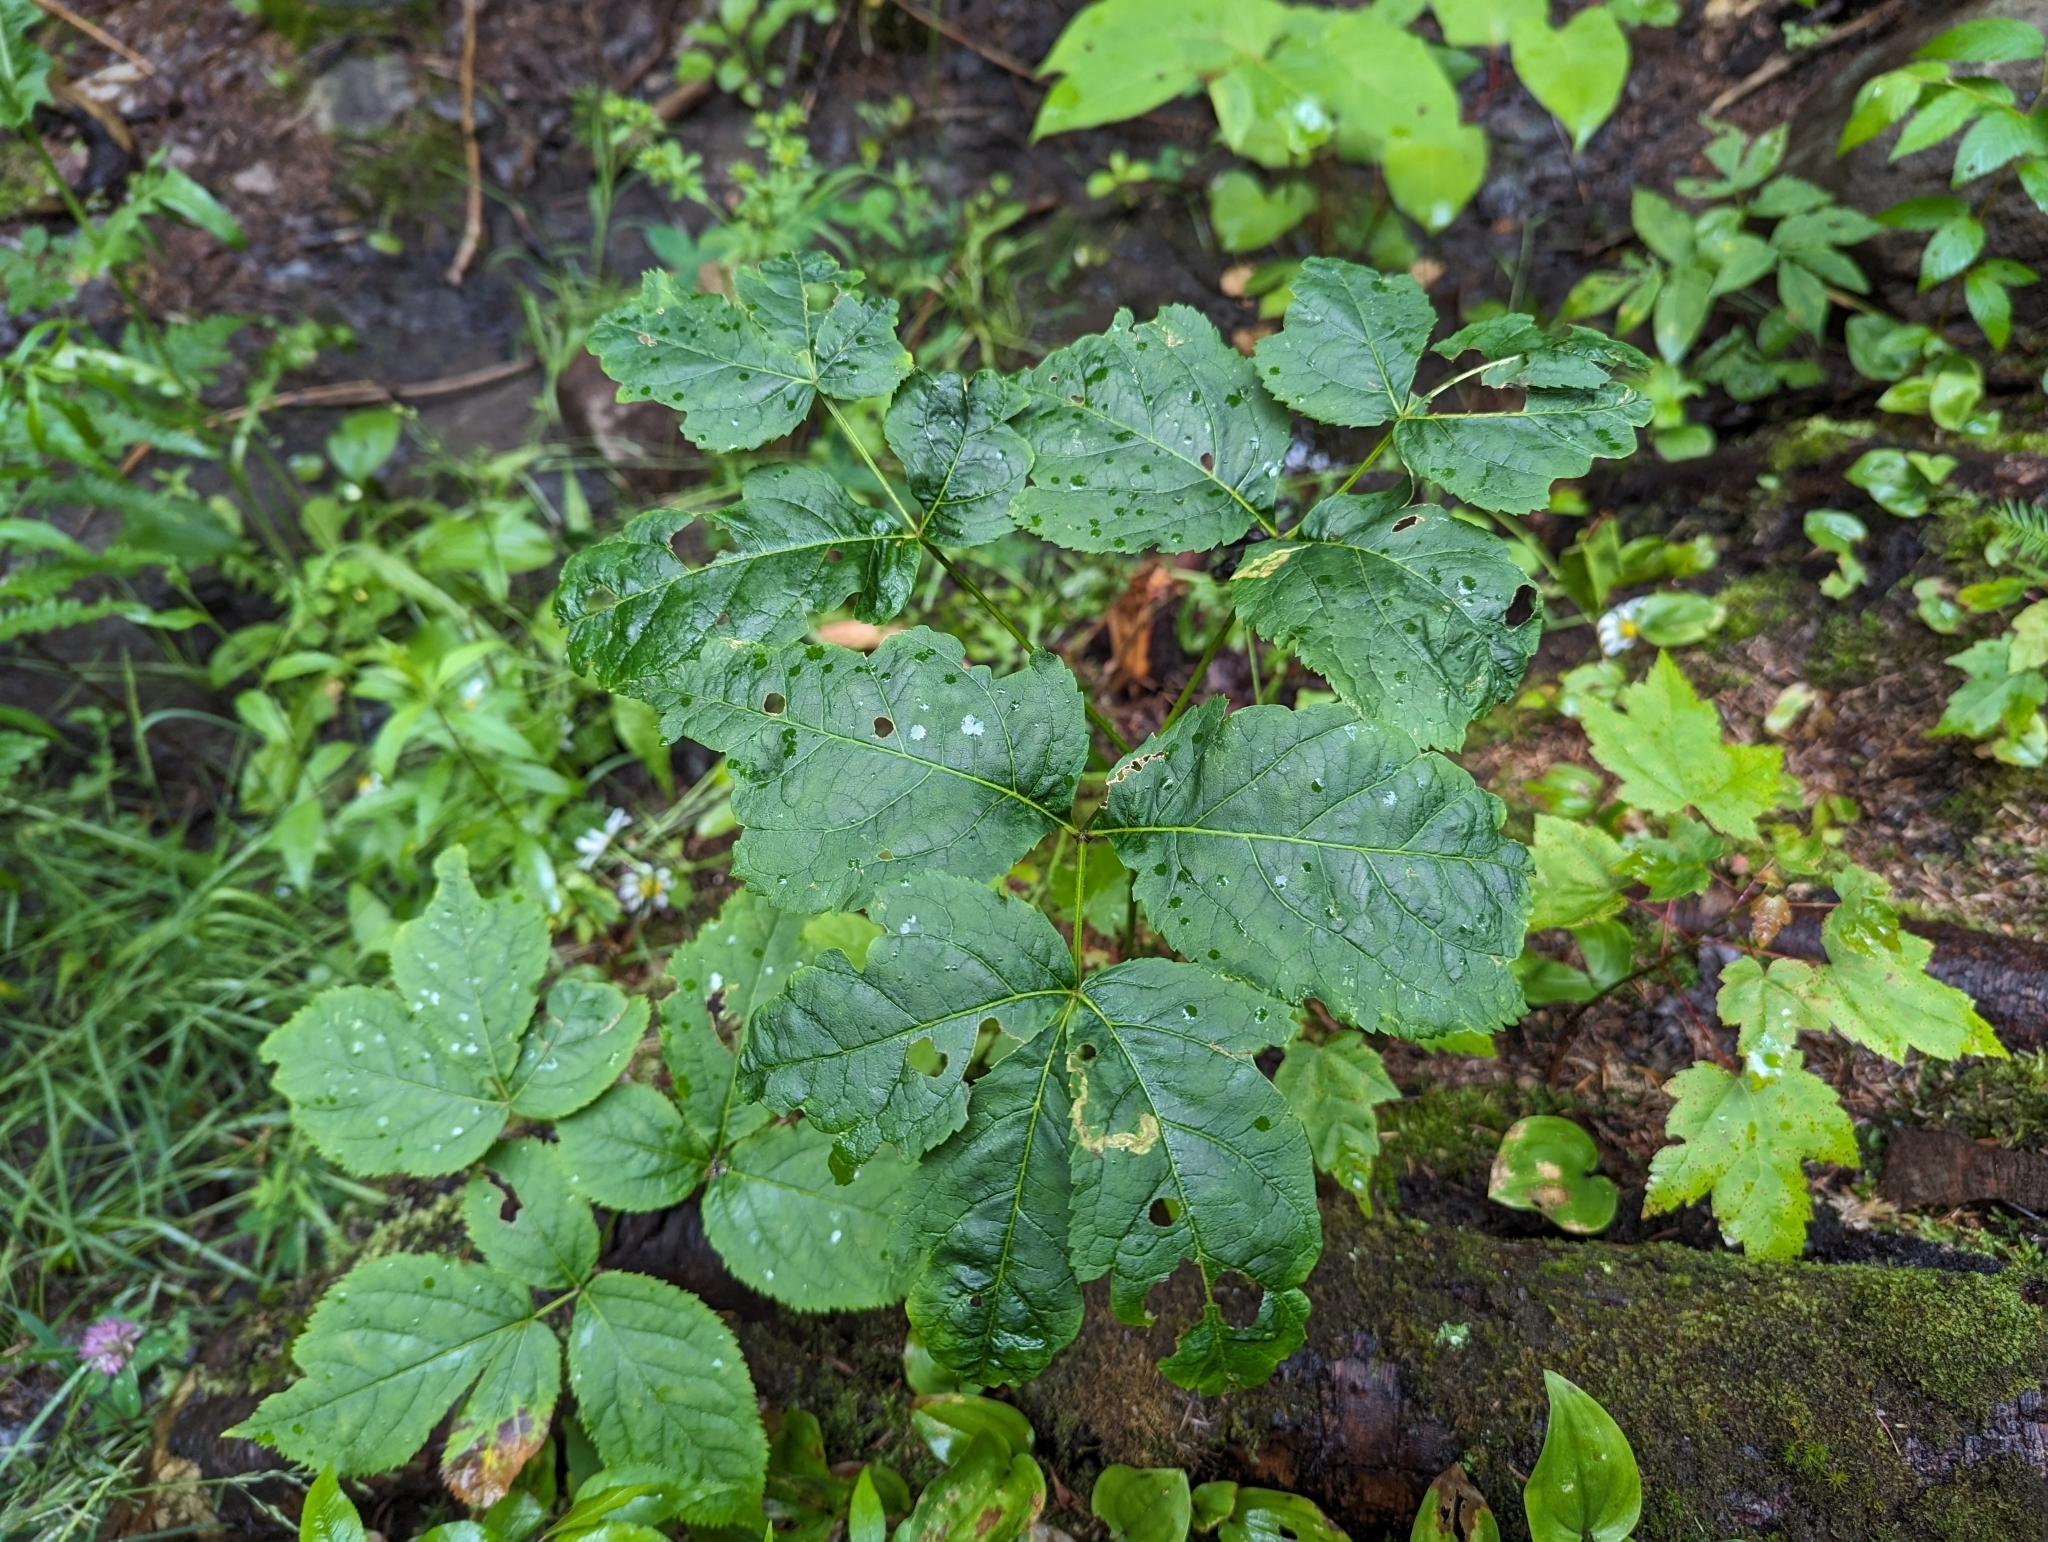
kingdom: Plantae
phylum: Tracheophyta
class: Magnoliopsida
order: Apiales
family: Araliaceae
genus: Aralia
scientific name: Aralia nudicaulis
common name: Wild sarsaparilla
